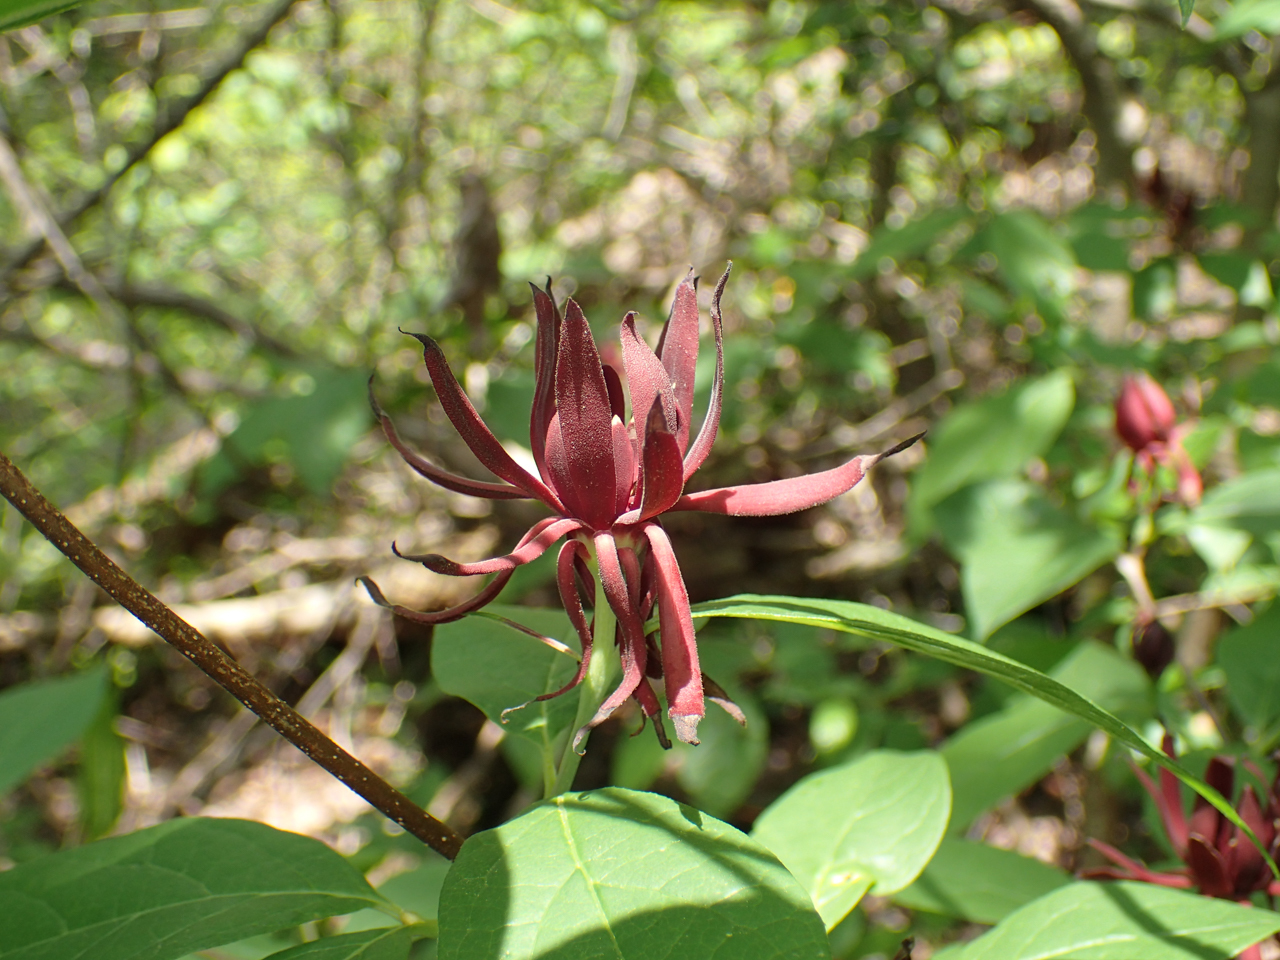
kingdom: Plantae
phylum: Tracheophyta
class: Magnoliopsida
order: Laurales
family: Calycanthaceae
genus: Calycanthus
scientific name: Calycanthus floridus
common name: Carolina-allspice
